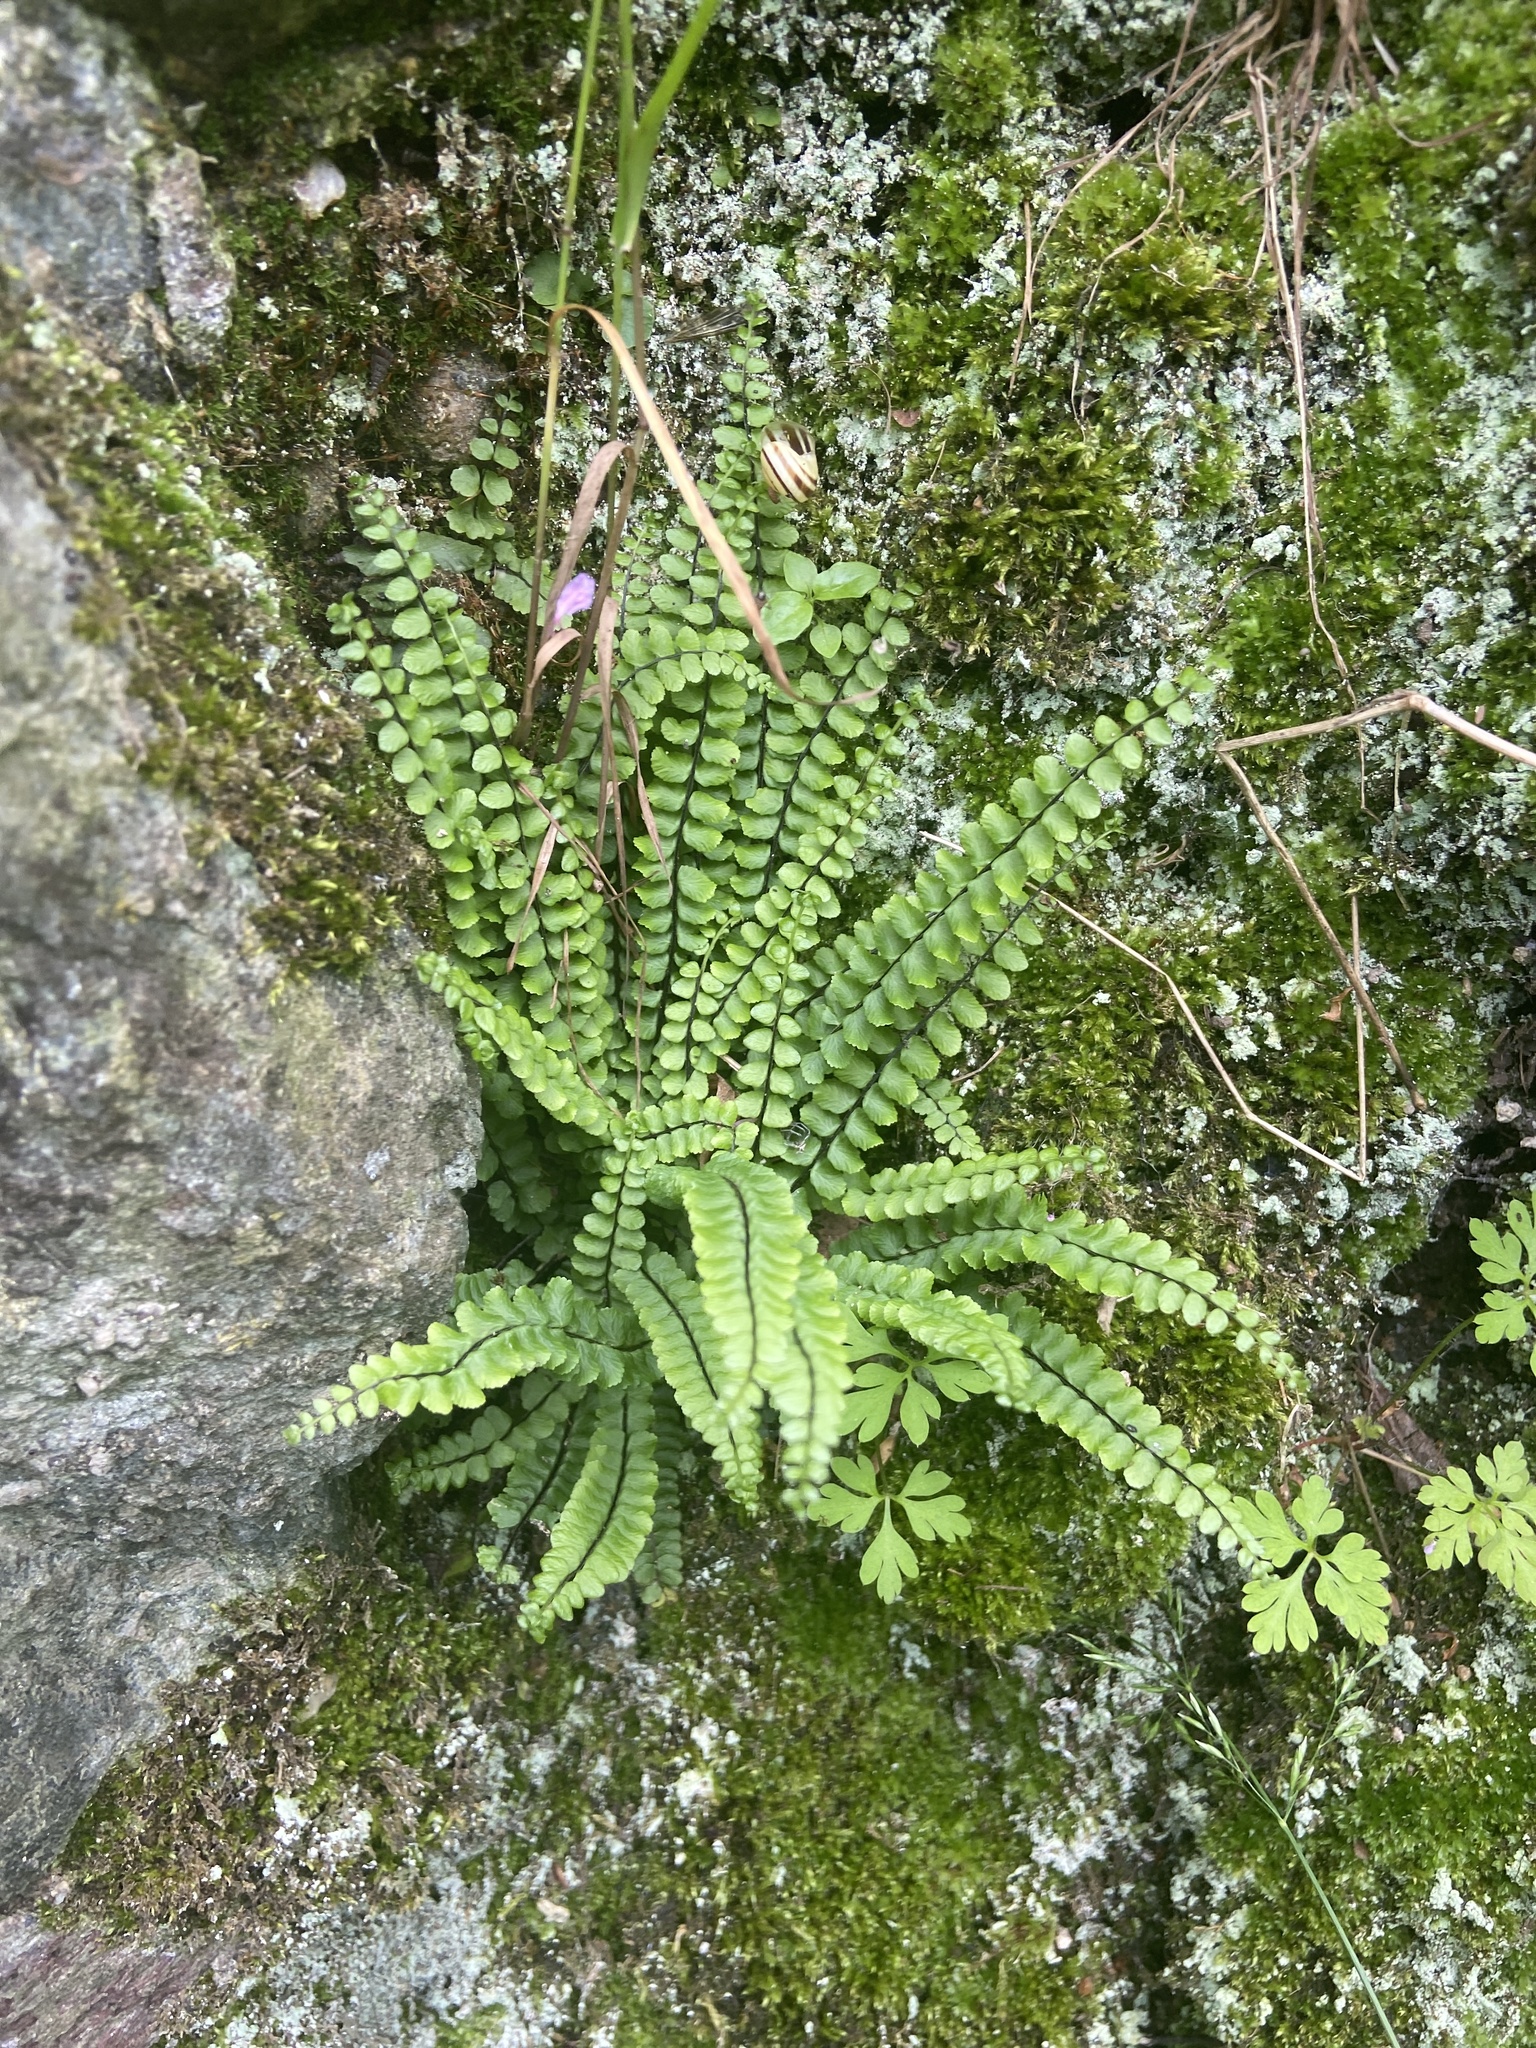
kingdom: Plantae
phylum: Tracheophyta
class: Polypodiopsida
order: Polypodiales
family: Aspleniaceae
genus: Asplenium
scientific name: Asplenium trichomanes
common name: Maidenhair spleenwort
